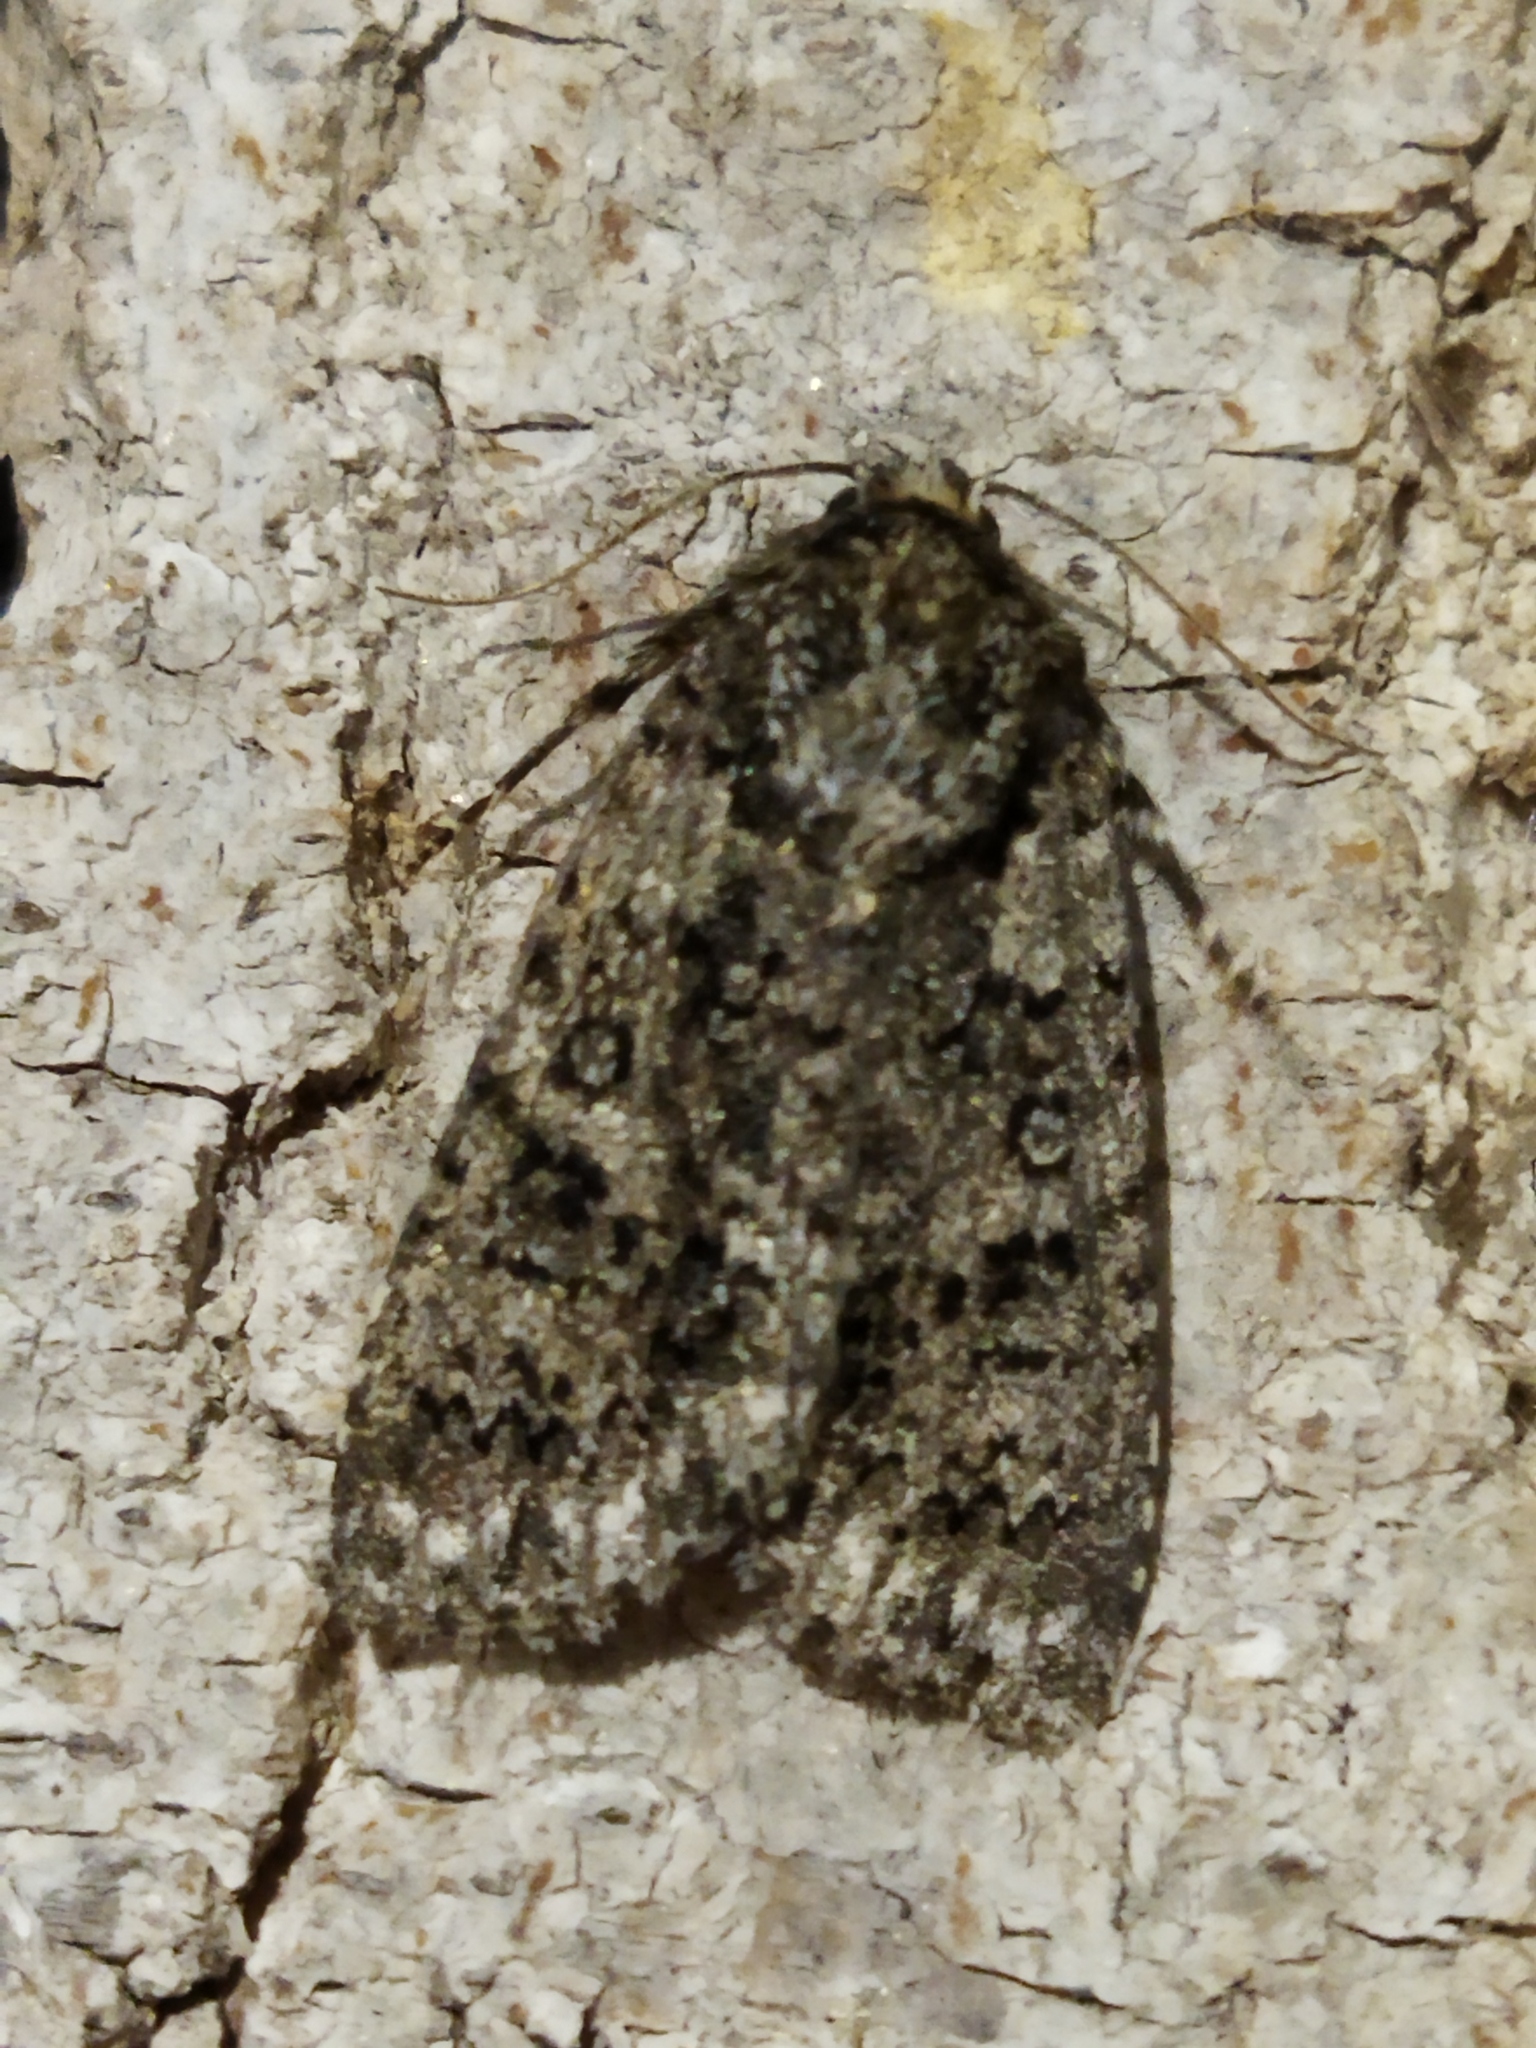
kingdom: Animalia
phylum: Arthropoda
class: Insecta
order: Lepidoptera
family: Noctuidae
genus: Acronicta
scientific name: Acronicta rumicis
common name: Knot grass
